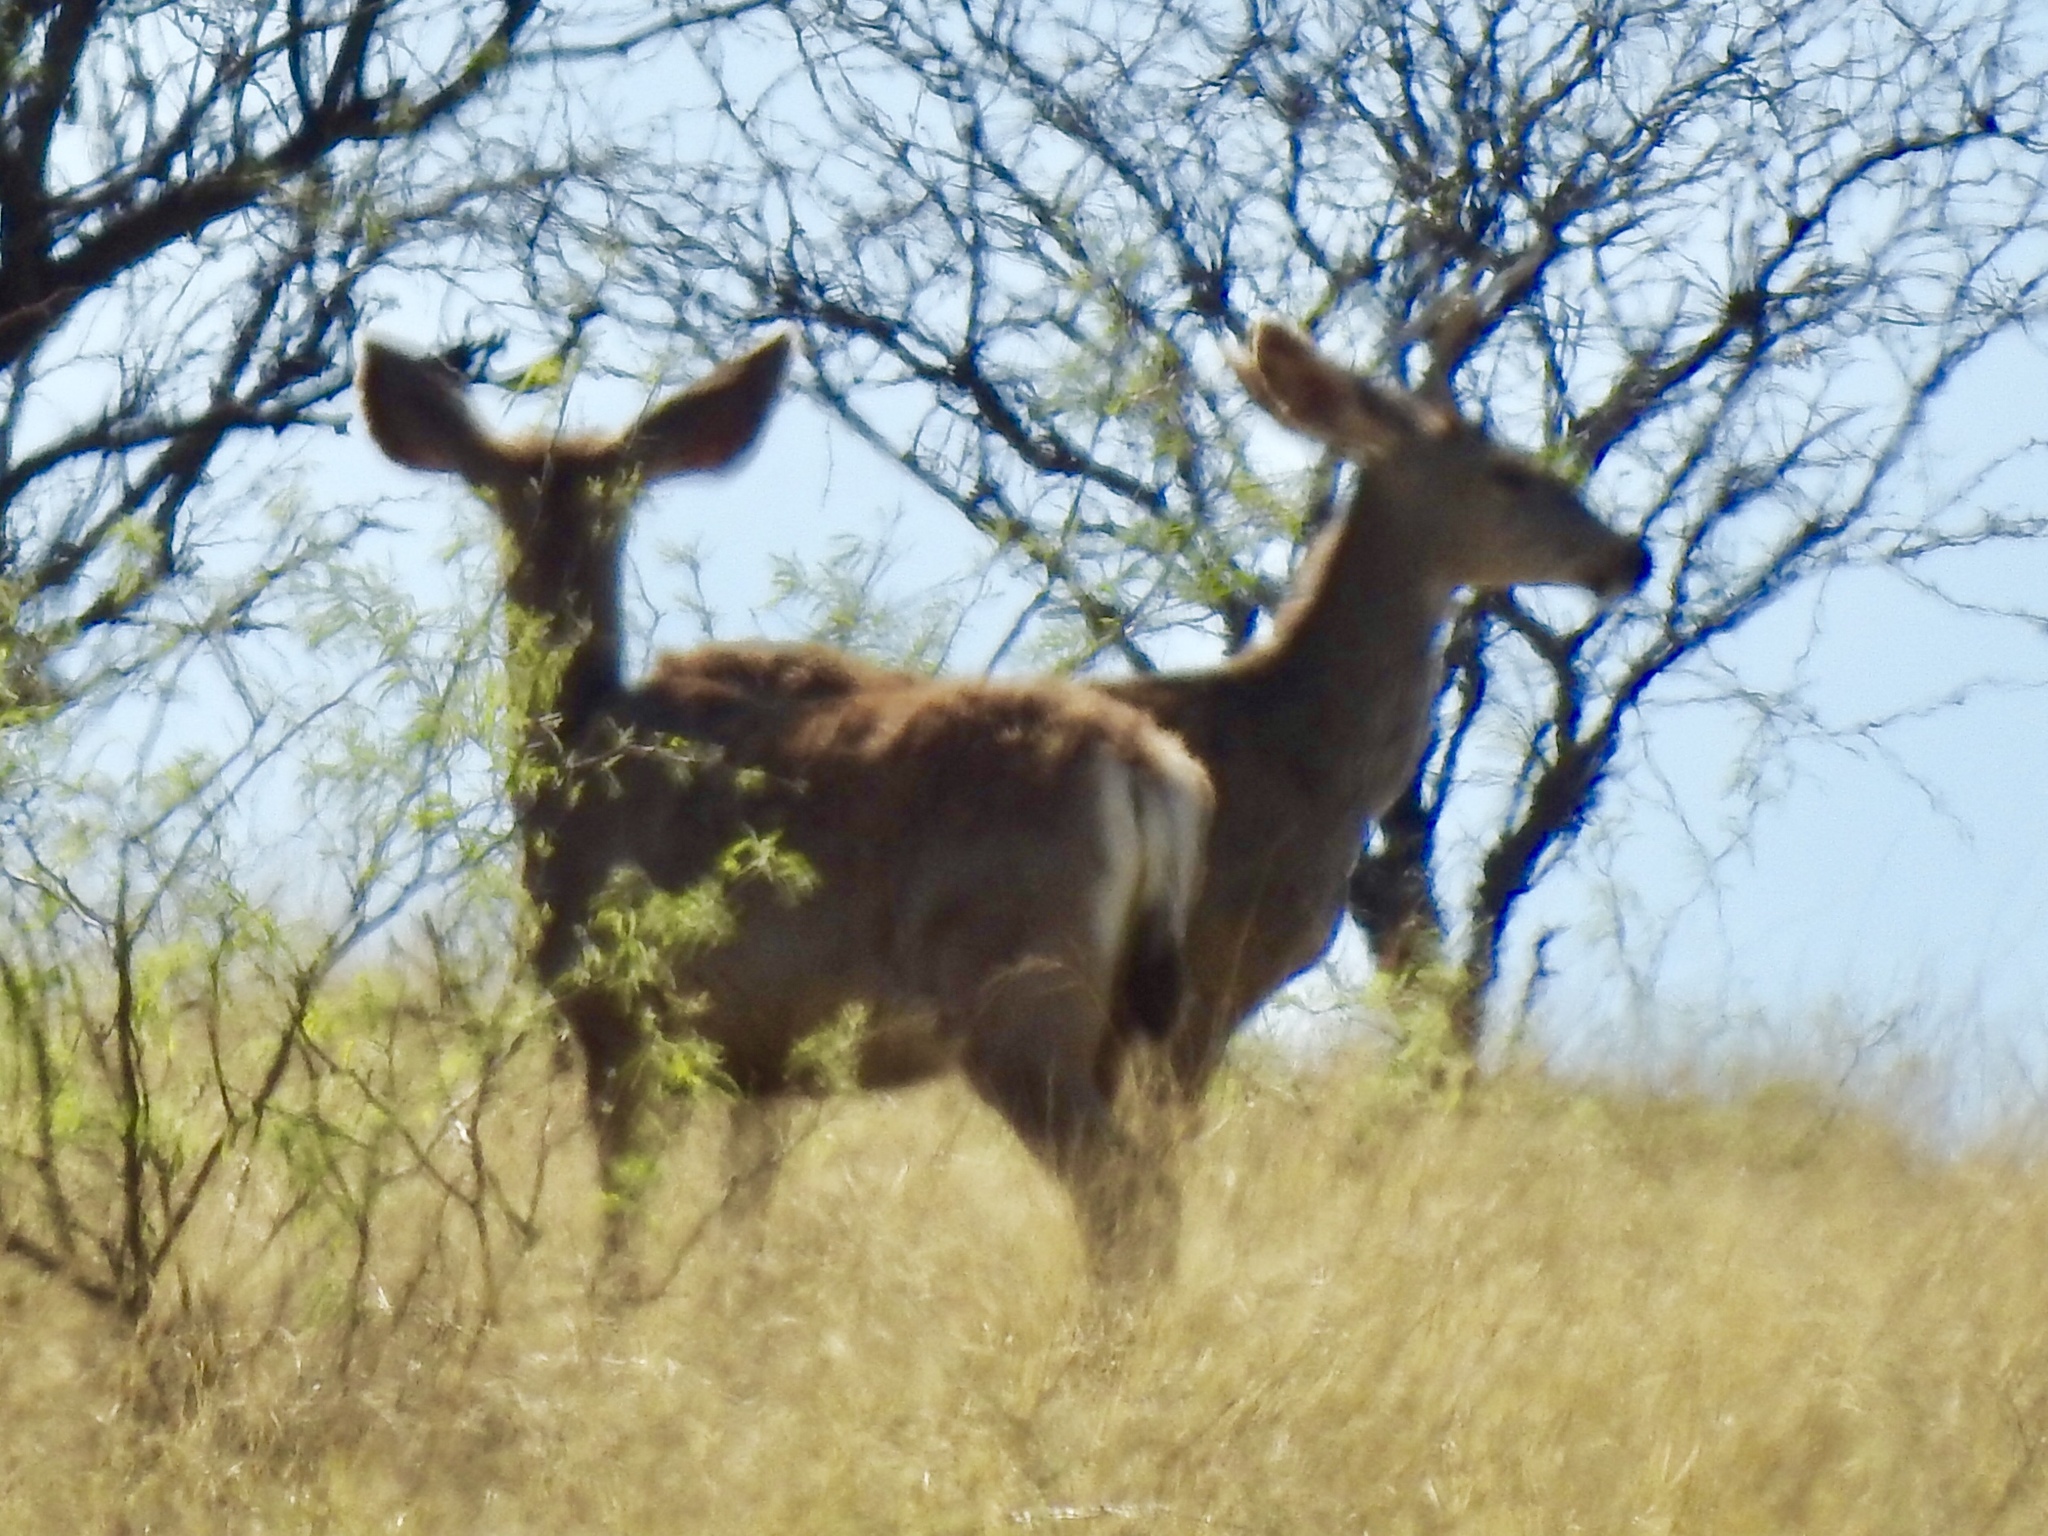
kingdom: Animalia
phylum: Chordata
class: Mammalia
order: Artiodactyla
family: Cervidae
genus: Odocoileus
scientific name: Odocoileus hemionus
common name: Mule deer
